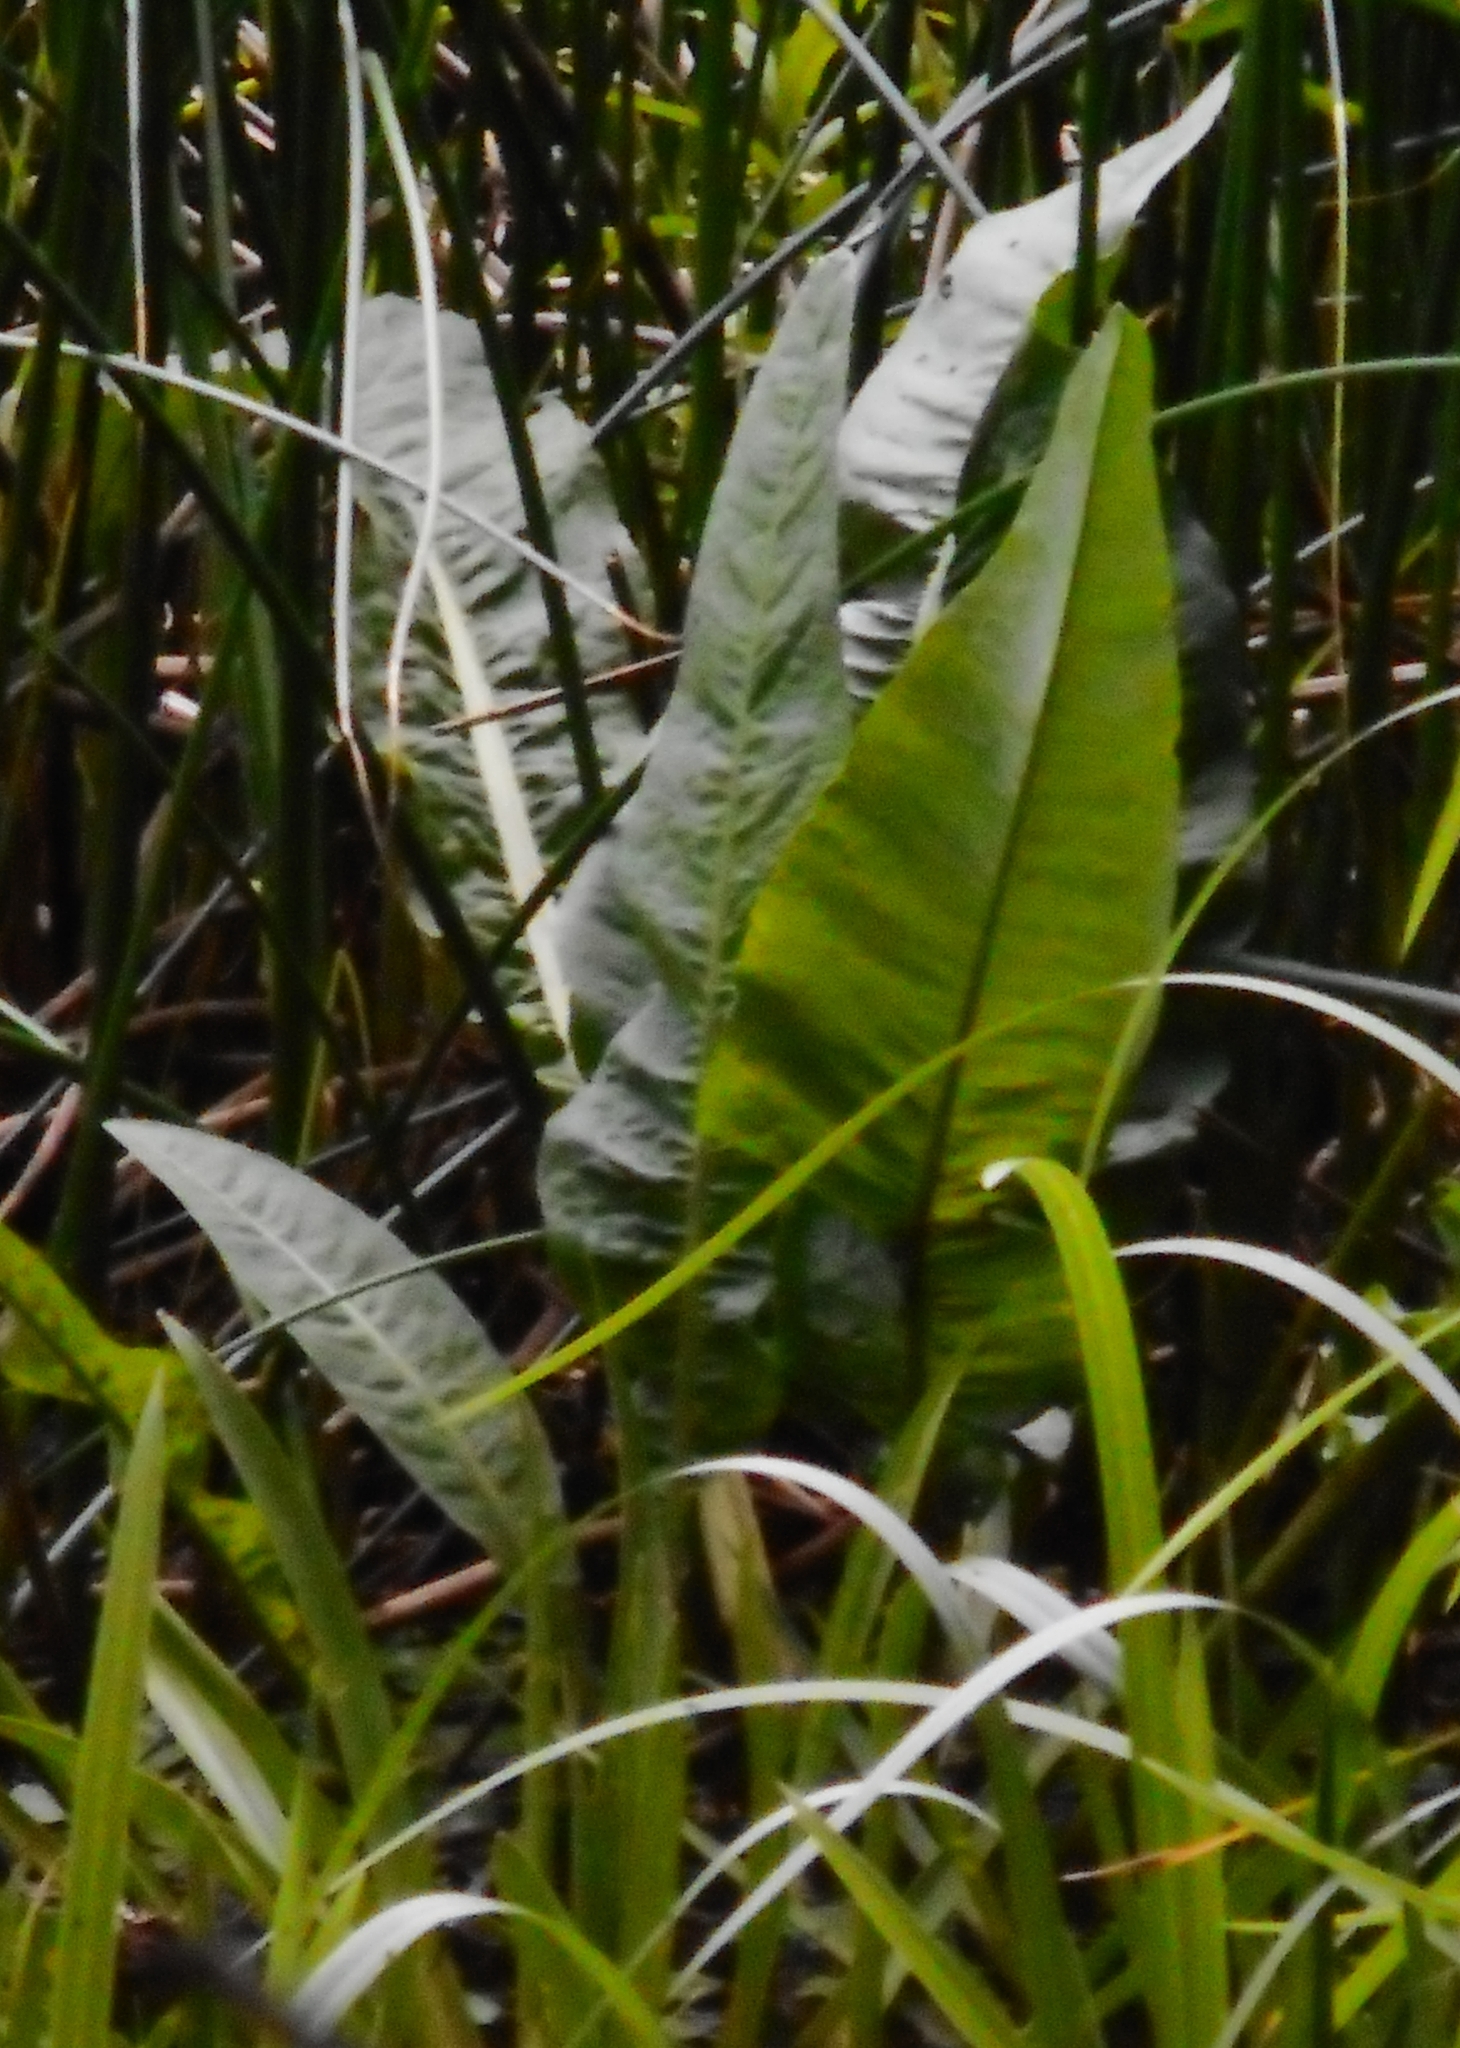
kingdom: Plantae
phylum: Tracheophyta
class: Magnoliopsida
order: Caryophyllales
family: Polygonaceae
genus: Rumex
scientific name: Rumex hydrolapathum
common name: Water dock
